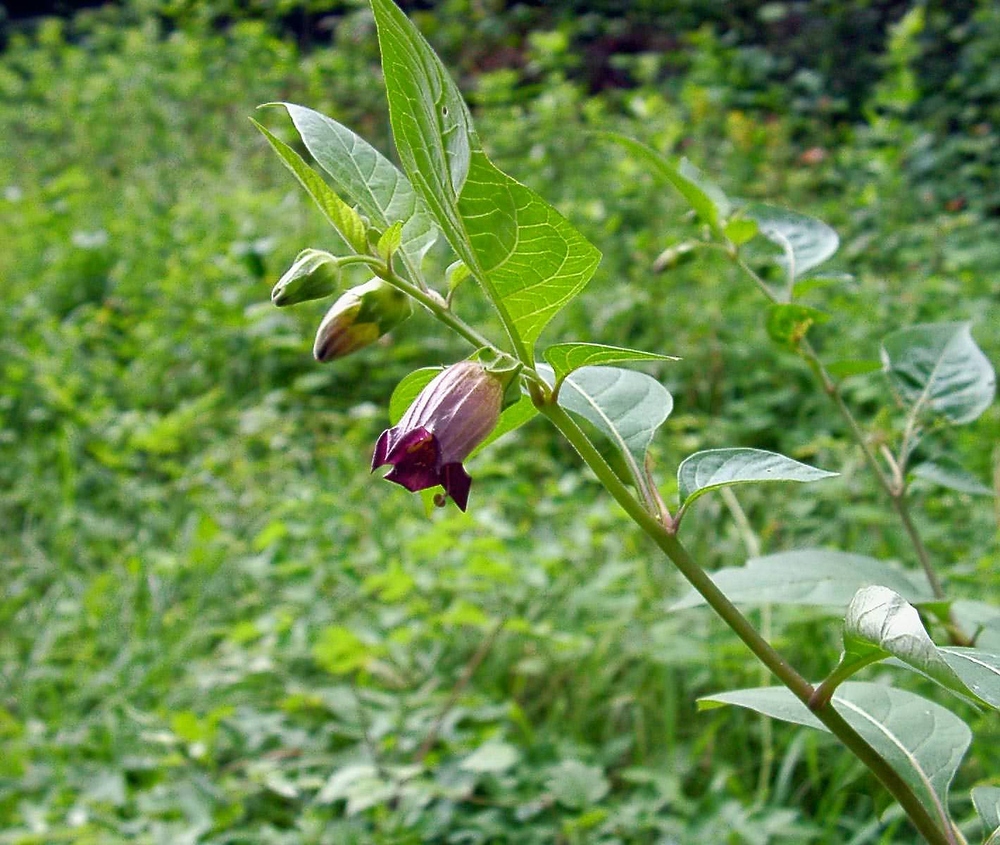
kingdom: Plantae
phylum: Tracheophyta
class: Magnoliopsida
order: Solanales
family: Solanaceae
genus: Atropa
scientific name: Atropa belladonna
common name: Deadly nightshade
